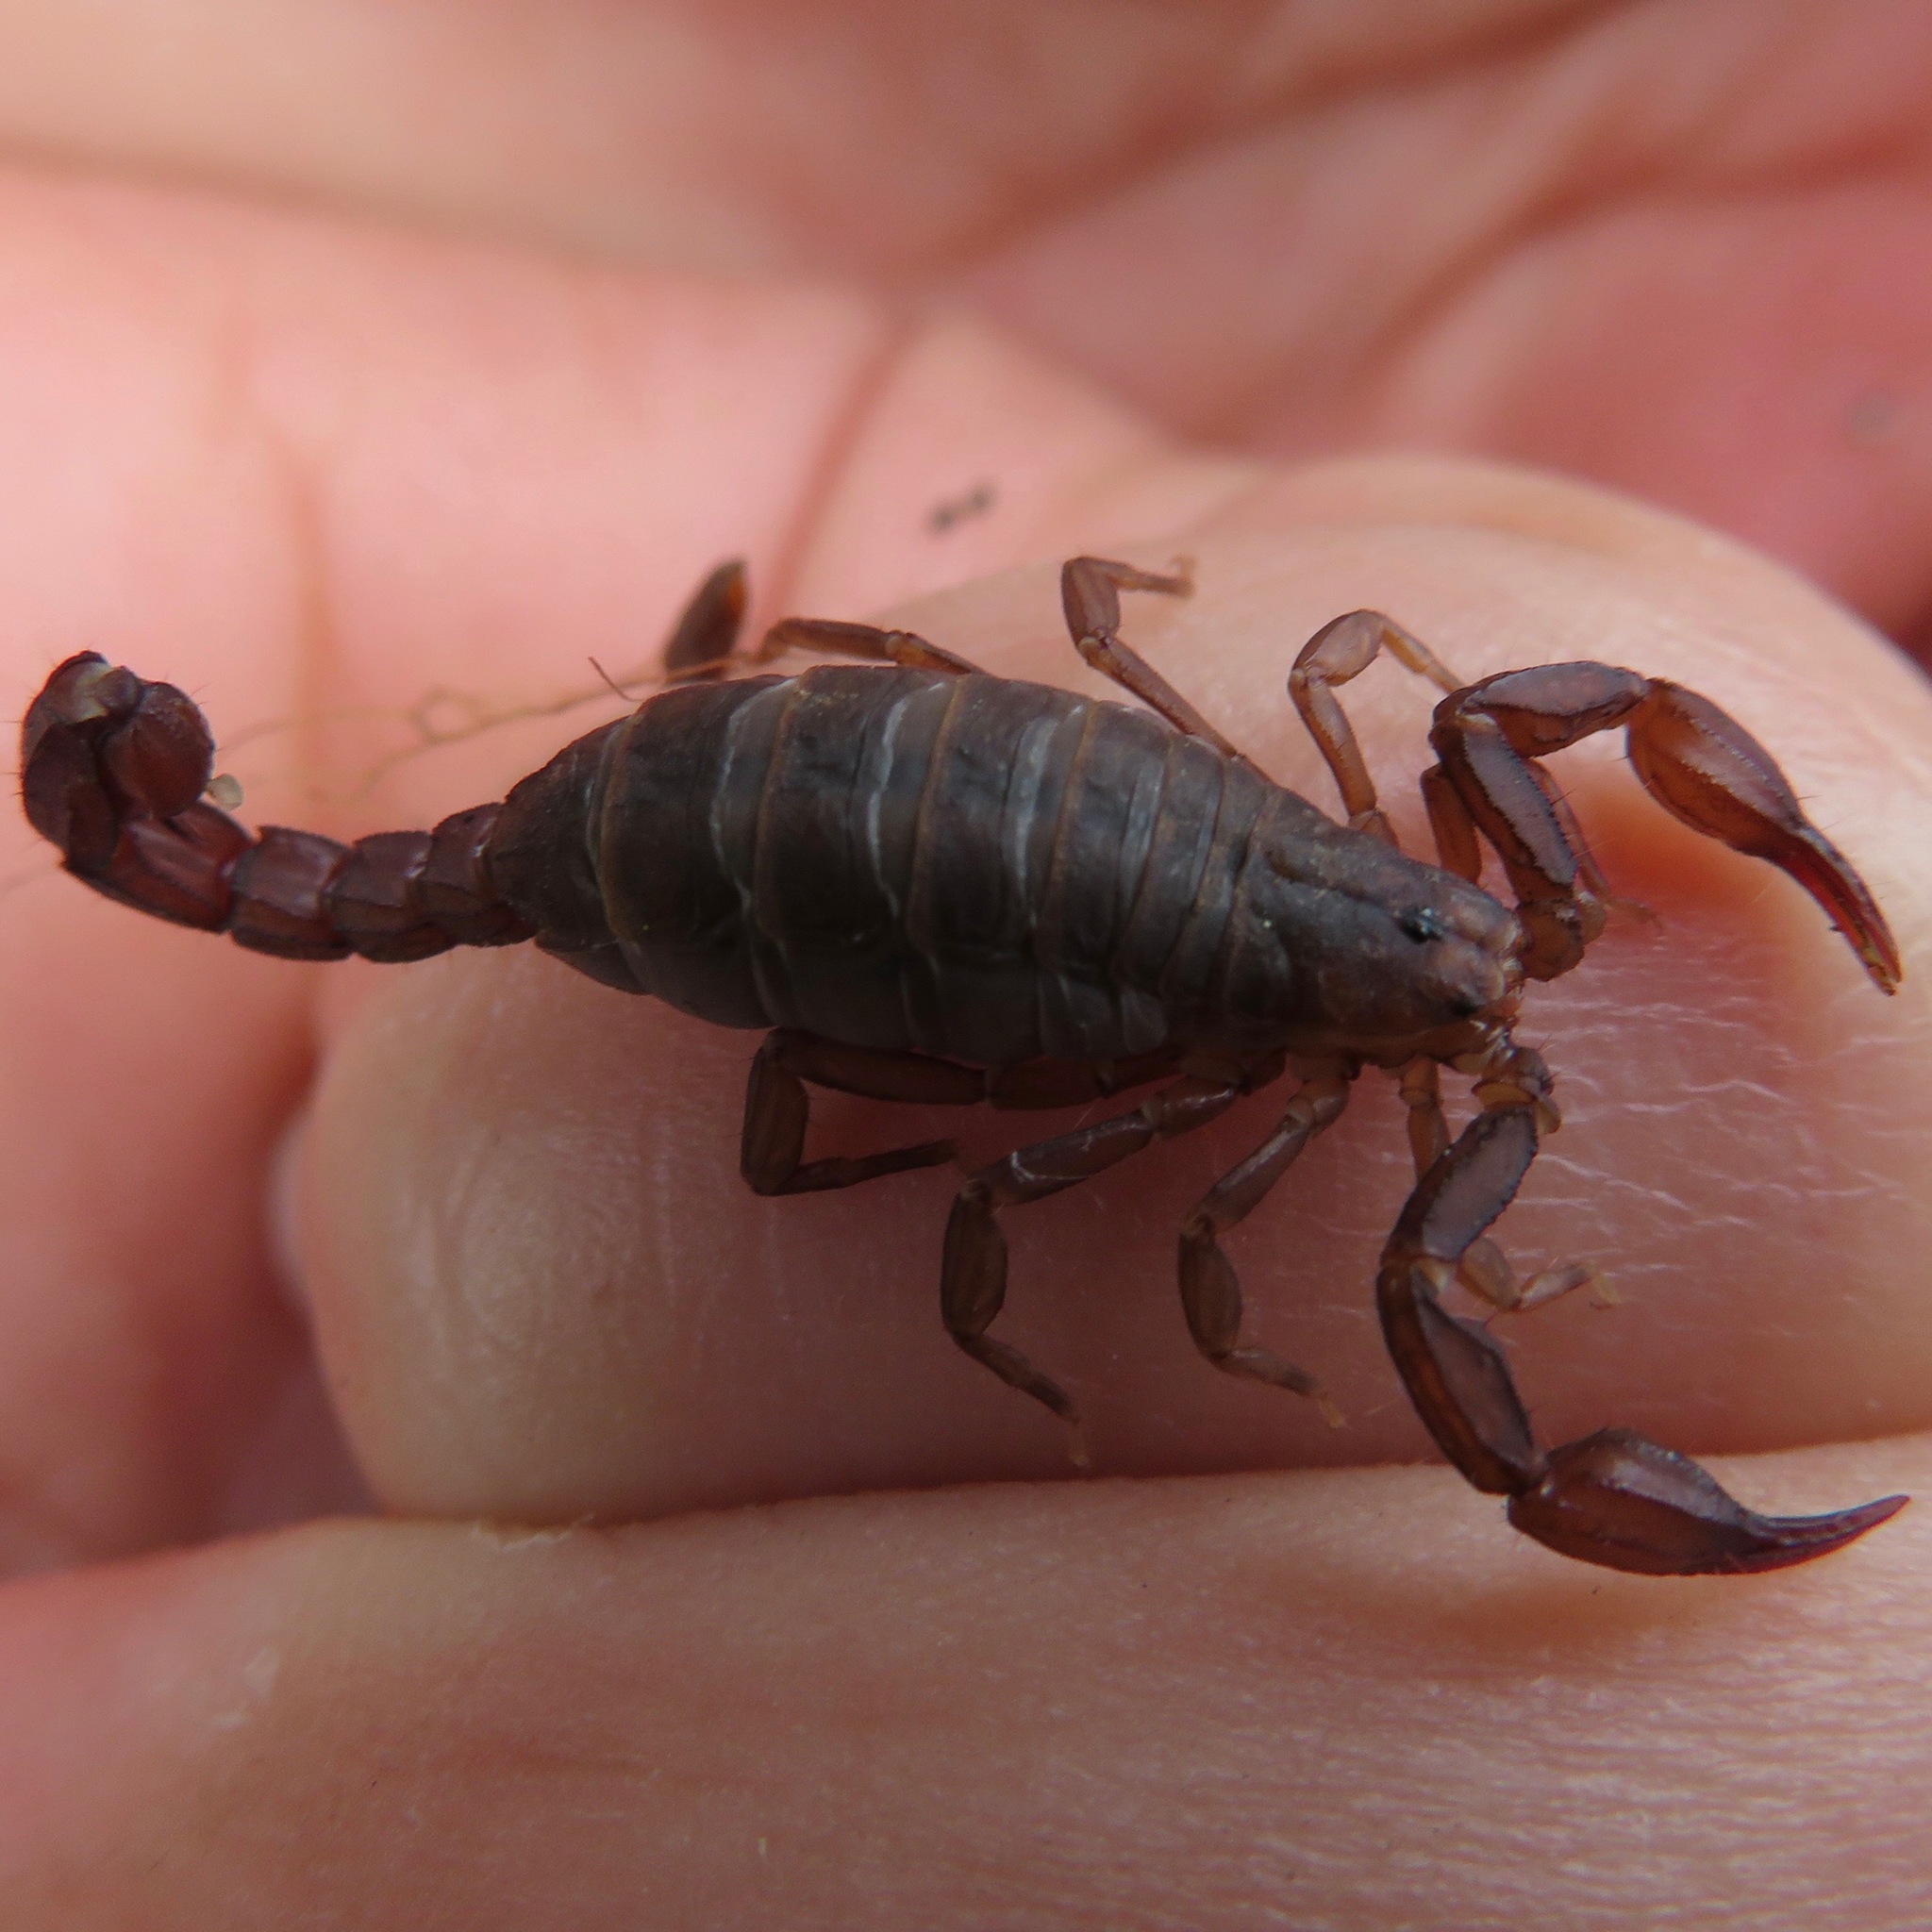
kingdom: Animalia
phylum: Arthropoda
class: Arachnida
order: Scorpiones
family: Vaejovidae
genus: Graemeloweus
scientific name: Graemeloweus iviei
